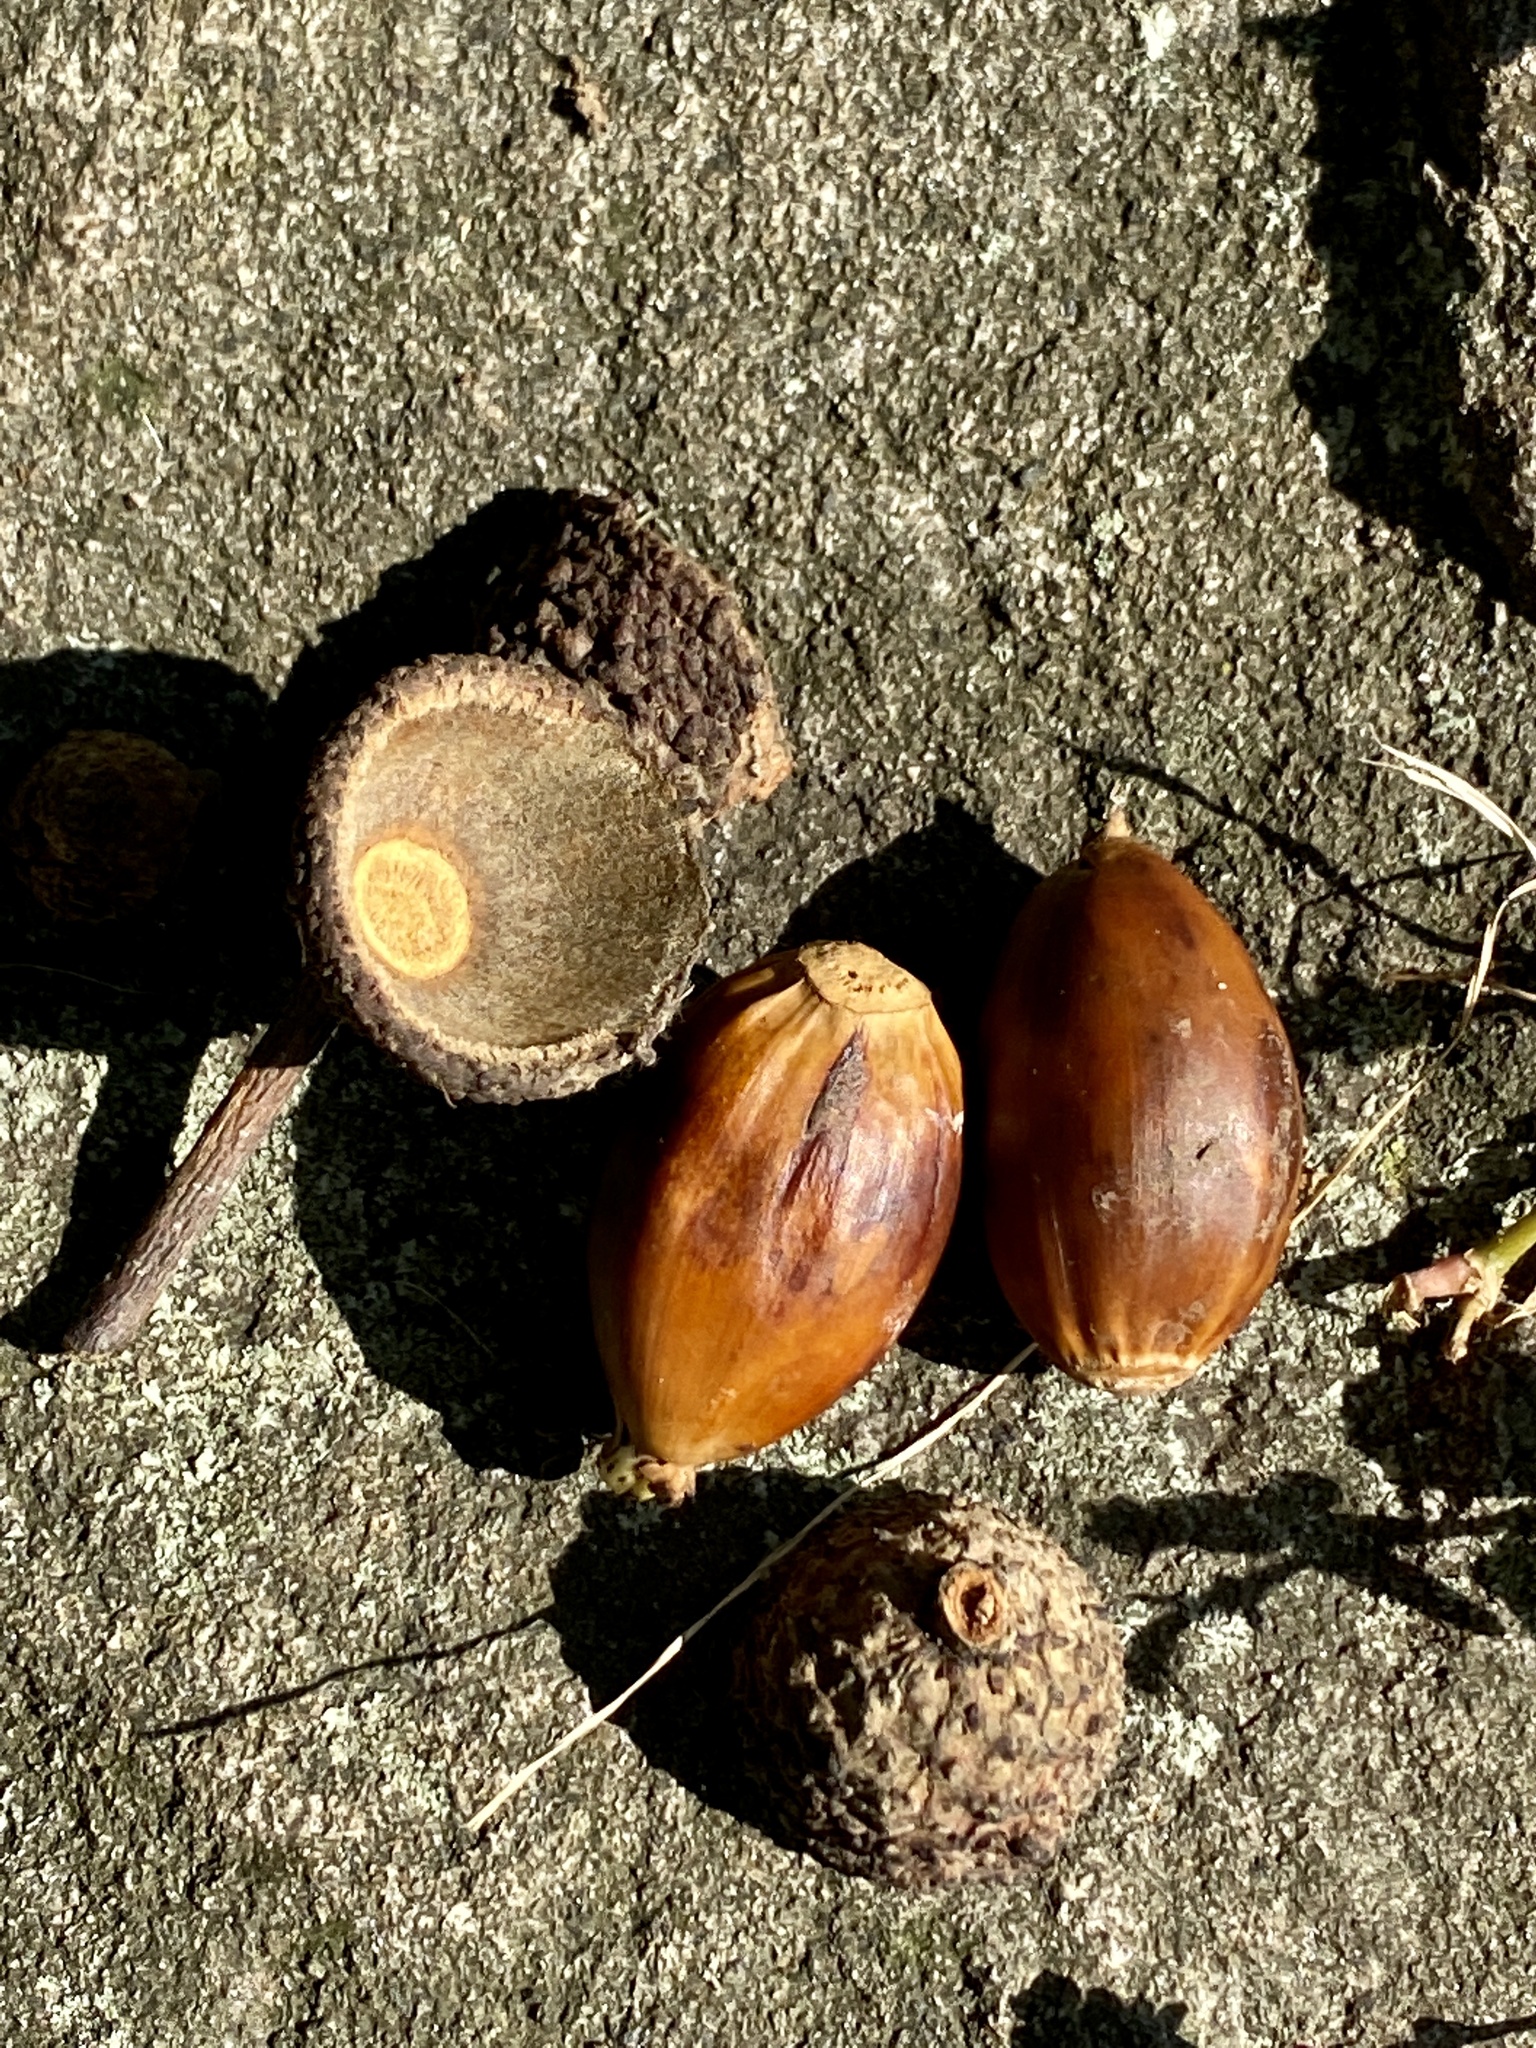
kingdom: Plantae
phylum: Tracheophyta
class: Magnoliopsida
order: Fagales
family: Fagaceae
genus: Quercus
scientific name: Quercus montana
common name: Chestnut oak
